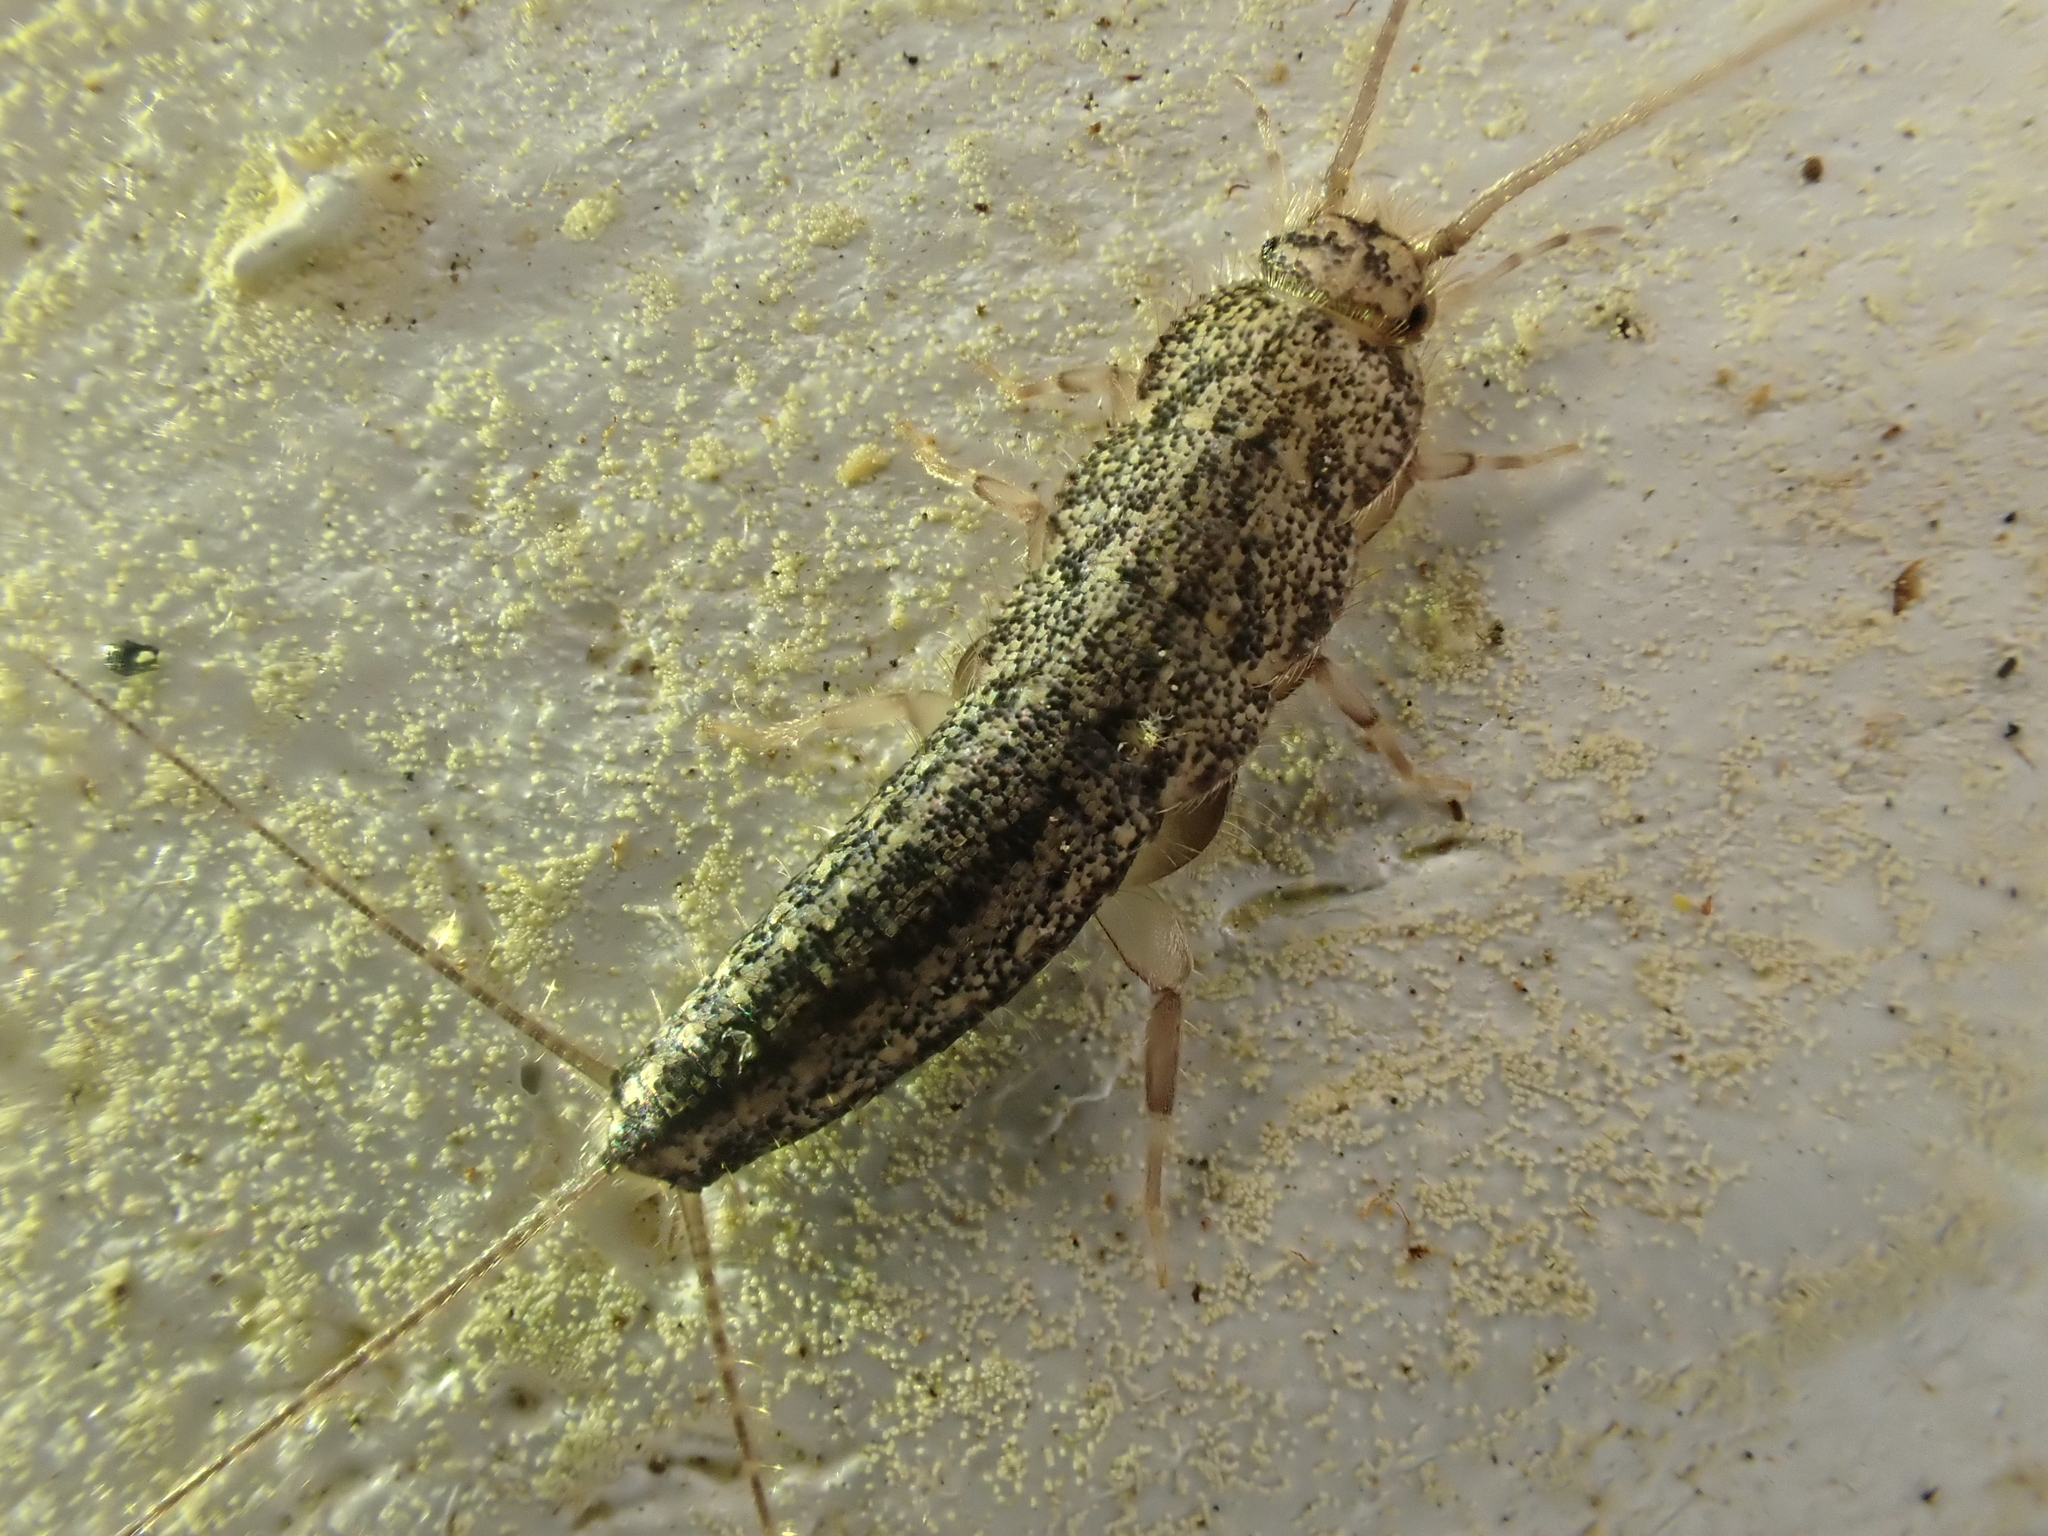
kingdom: Animalia
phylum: Arthropoda
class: Insecta
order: Zygentoma
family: Lepismatidae
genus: Ctenolepisma
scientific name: Ctenolepisma lineata
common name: Four-lined silverfish
